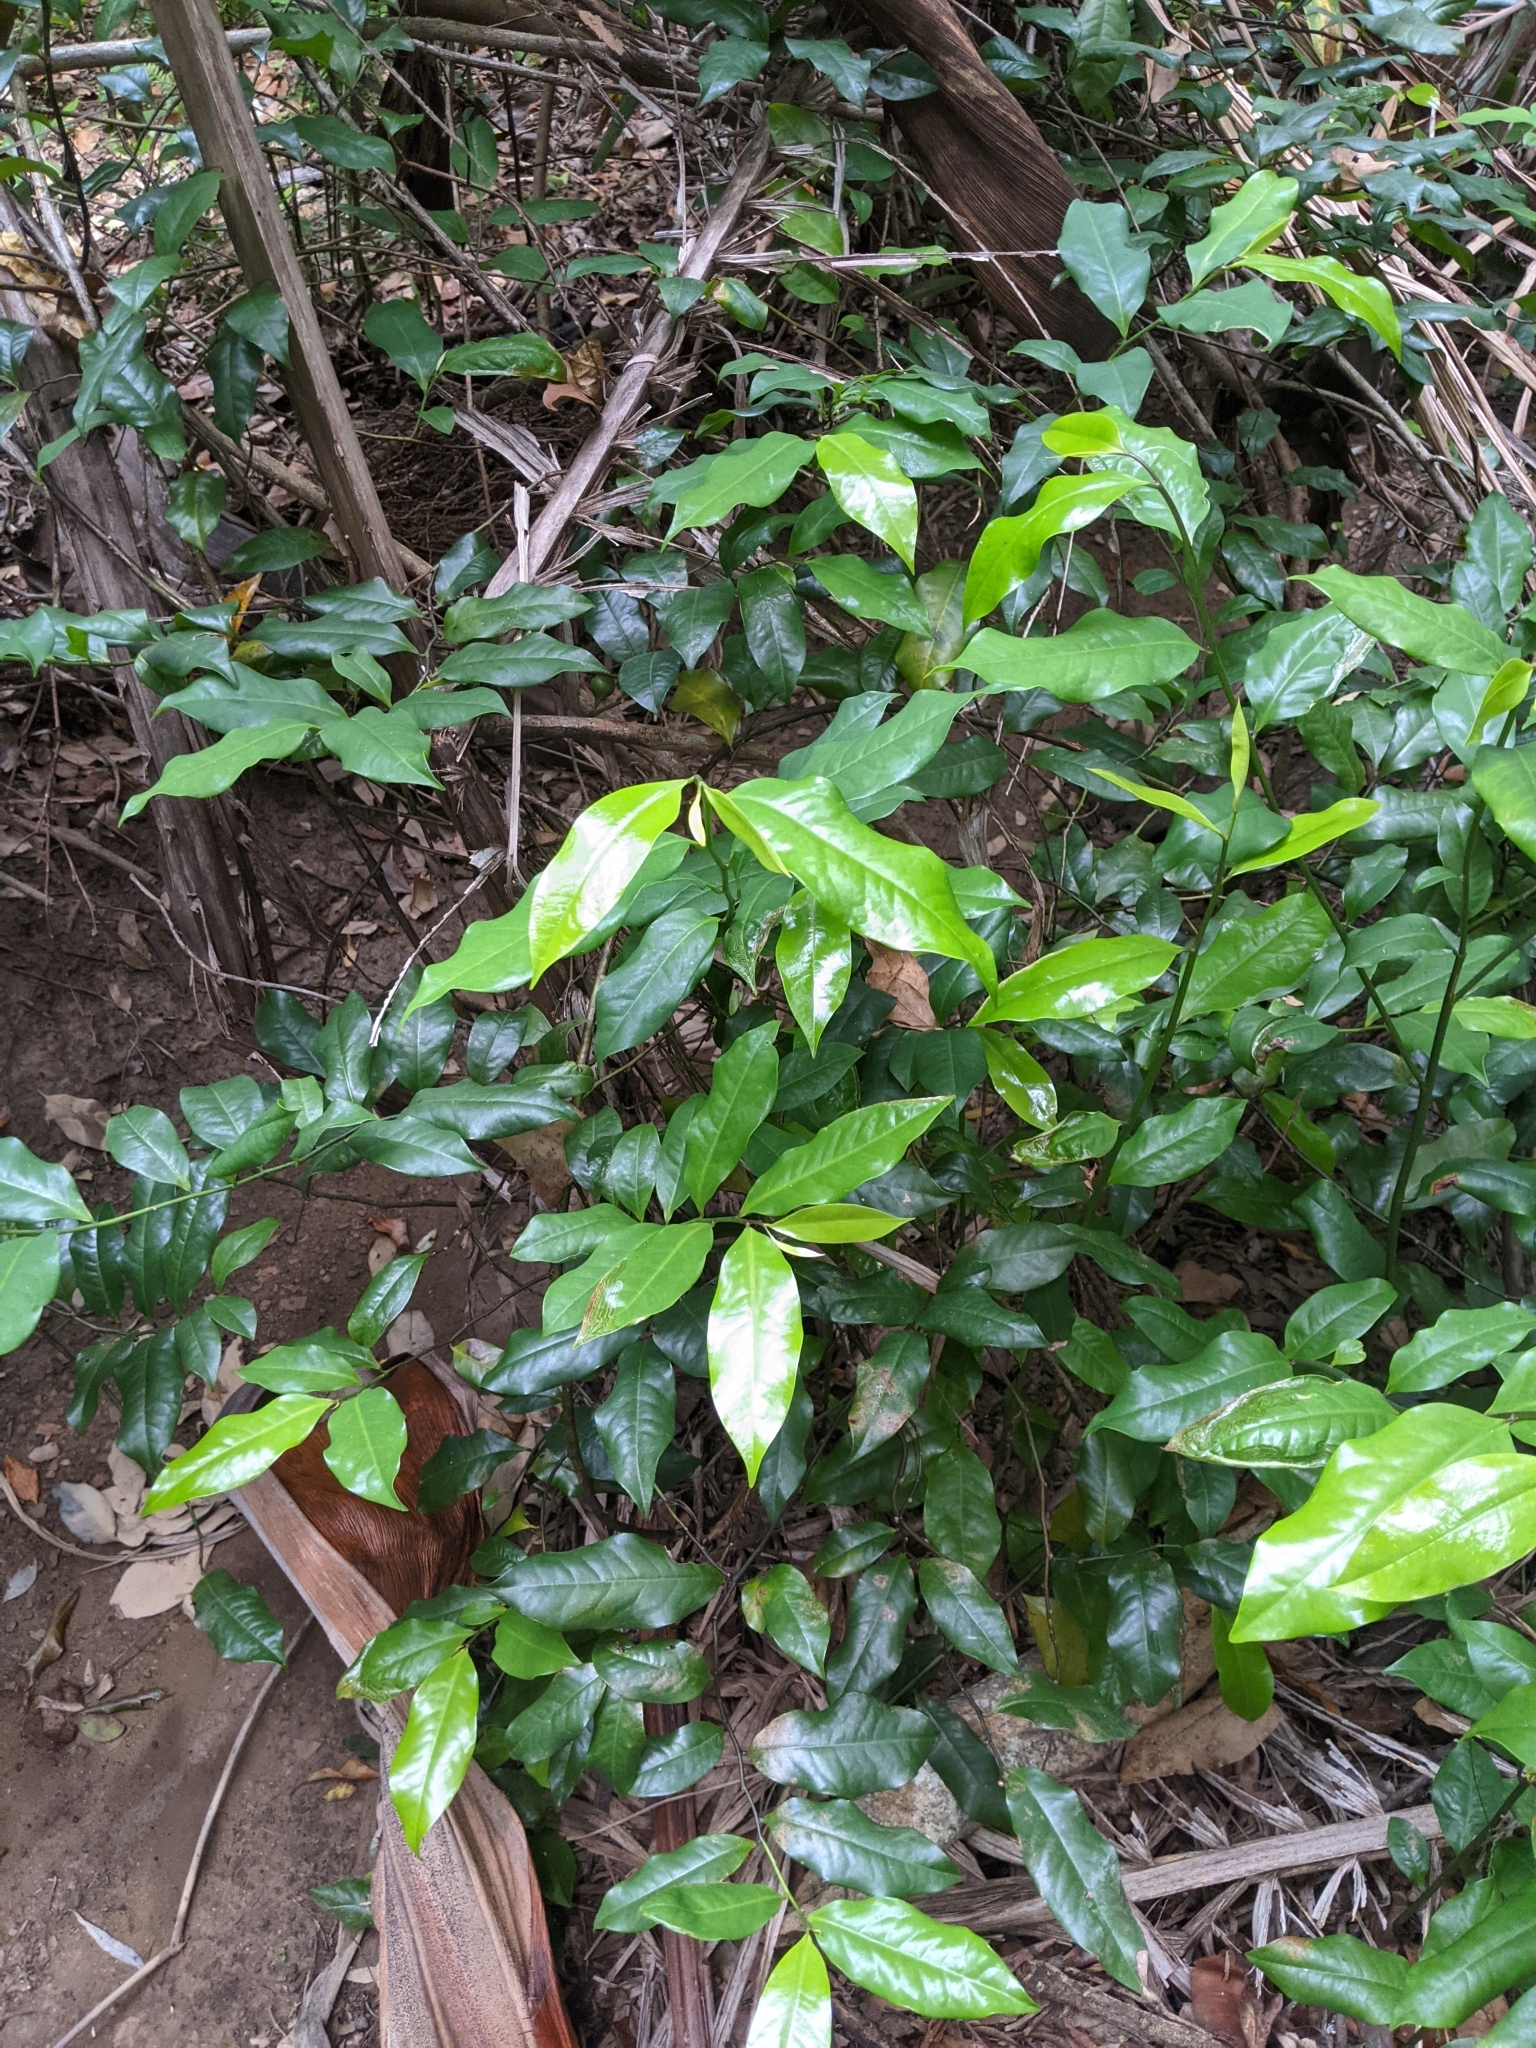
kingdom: Plantae
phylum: Tracheophyta
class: Magnoliopsida
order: Magnoliales
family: Eupomatiaceae
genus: Eupomatia
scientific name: Eupomatia laurina
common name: Bolwarra
